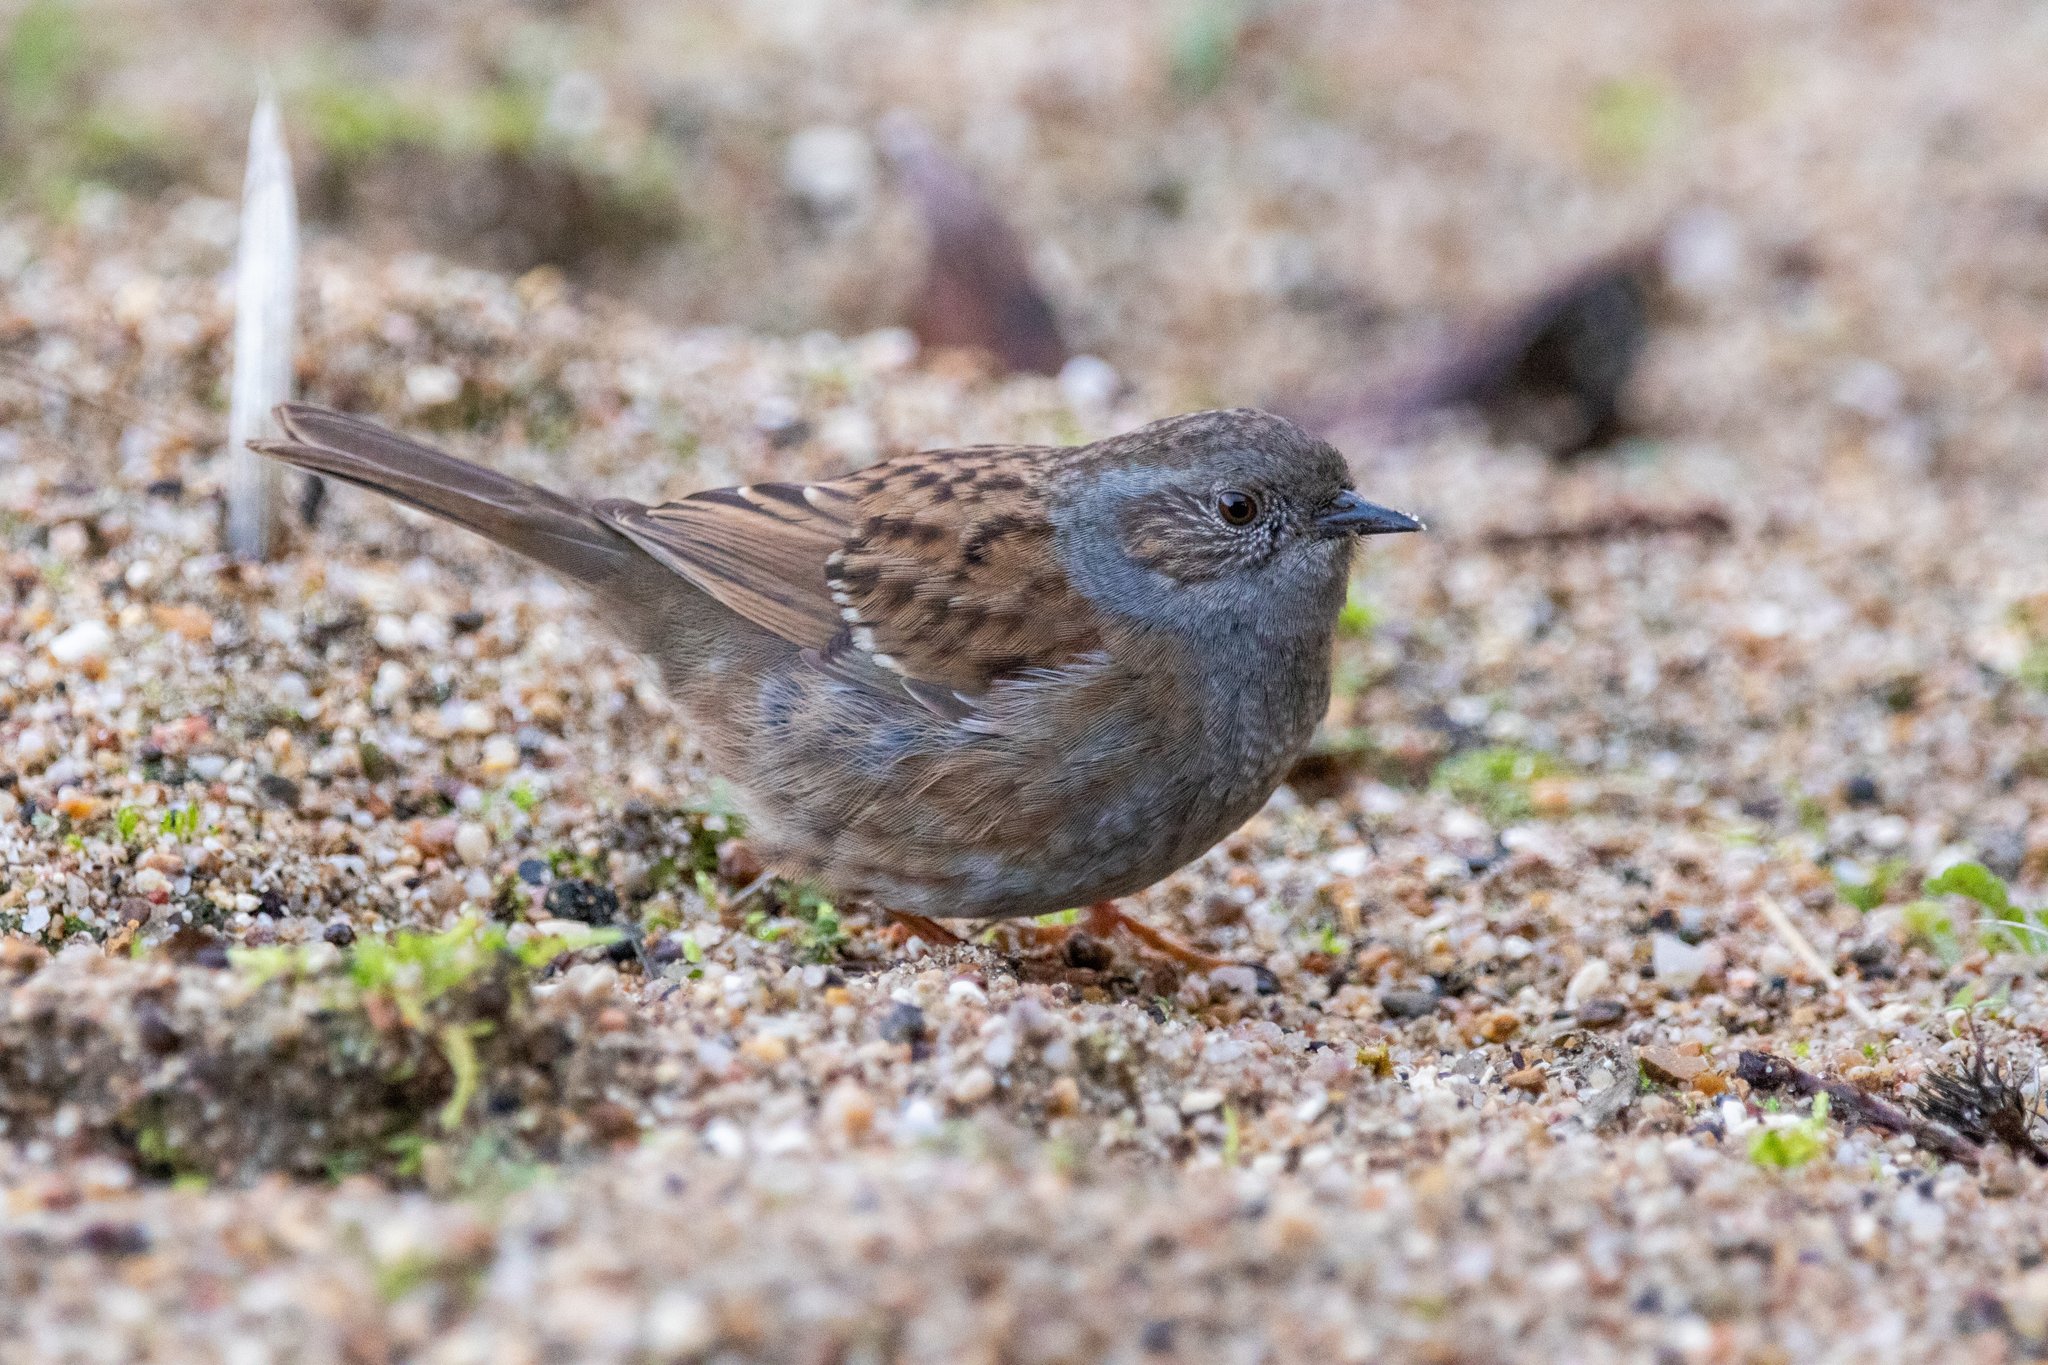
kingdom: Animalia
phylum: Chordata
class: Aves
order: Passeriformes
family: Prunellidae
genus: Prunella
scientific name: Prunella modularis
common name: Dunnock
